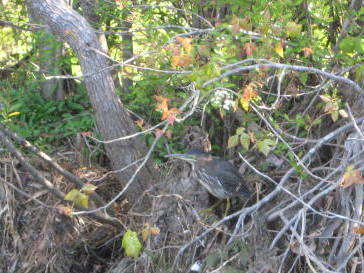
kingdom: Animalia
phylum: Chordata
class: Aves
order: Pelecaniformes
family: Ardeidae
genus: Butorides
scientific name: Butorides virescens
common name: Green heron
